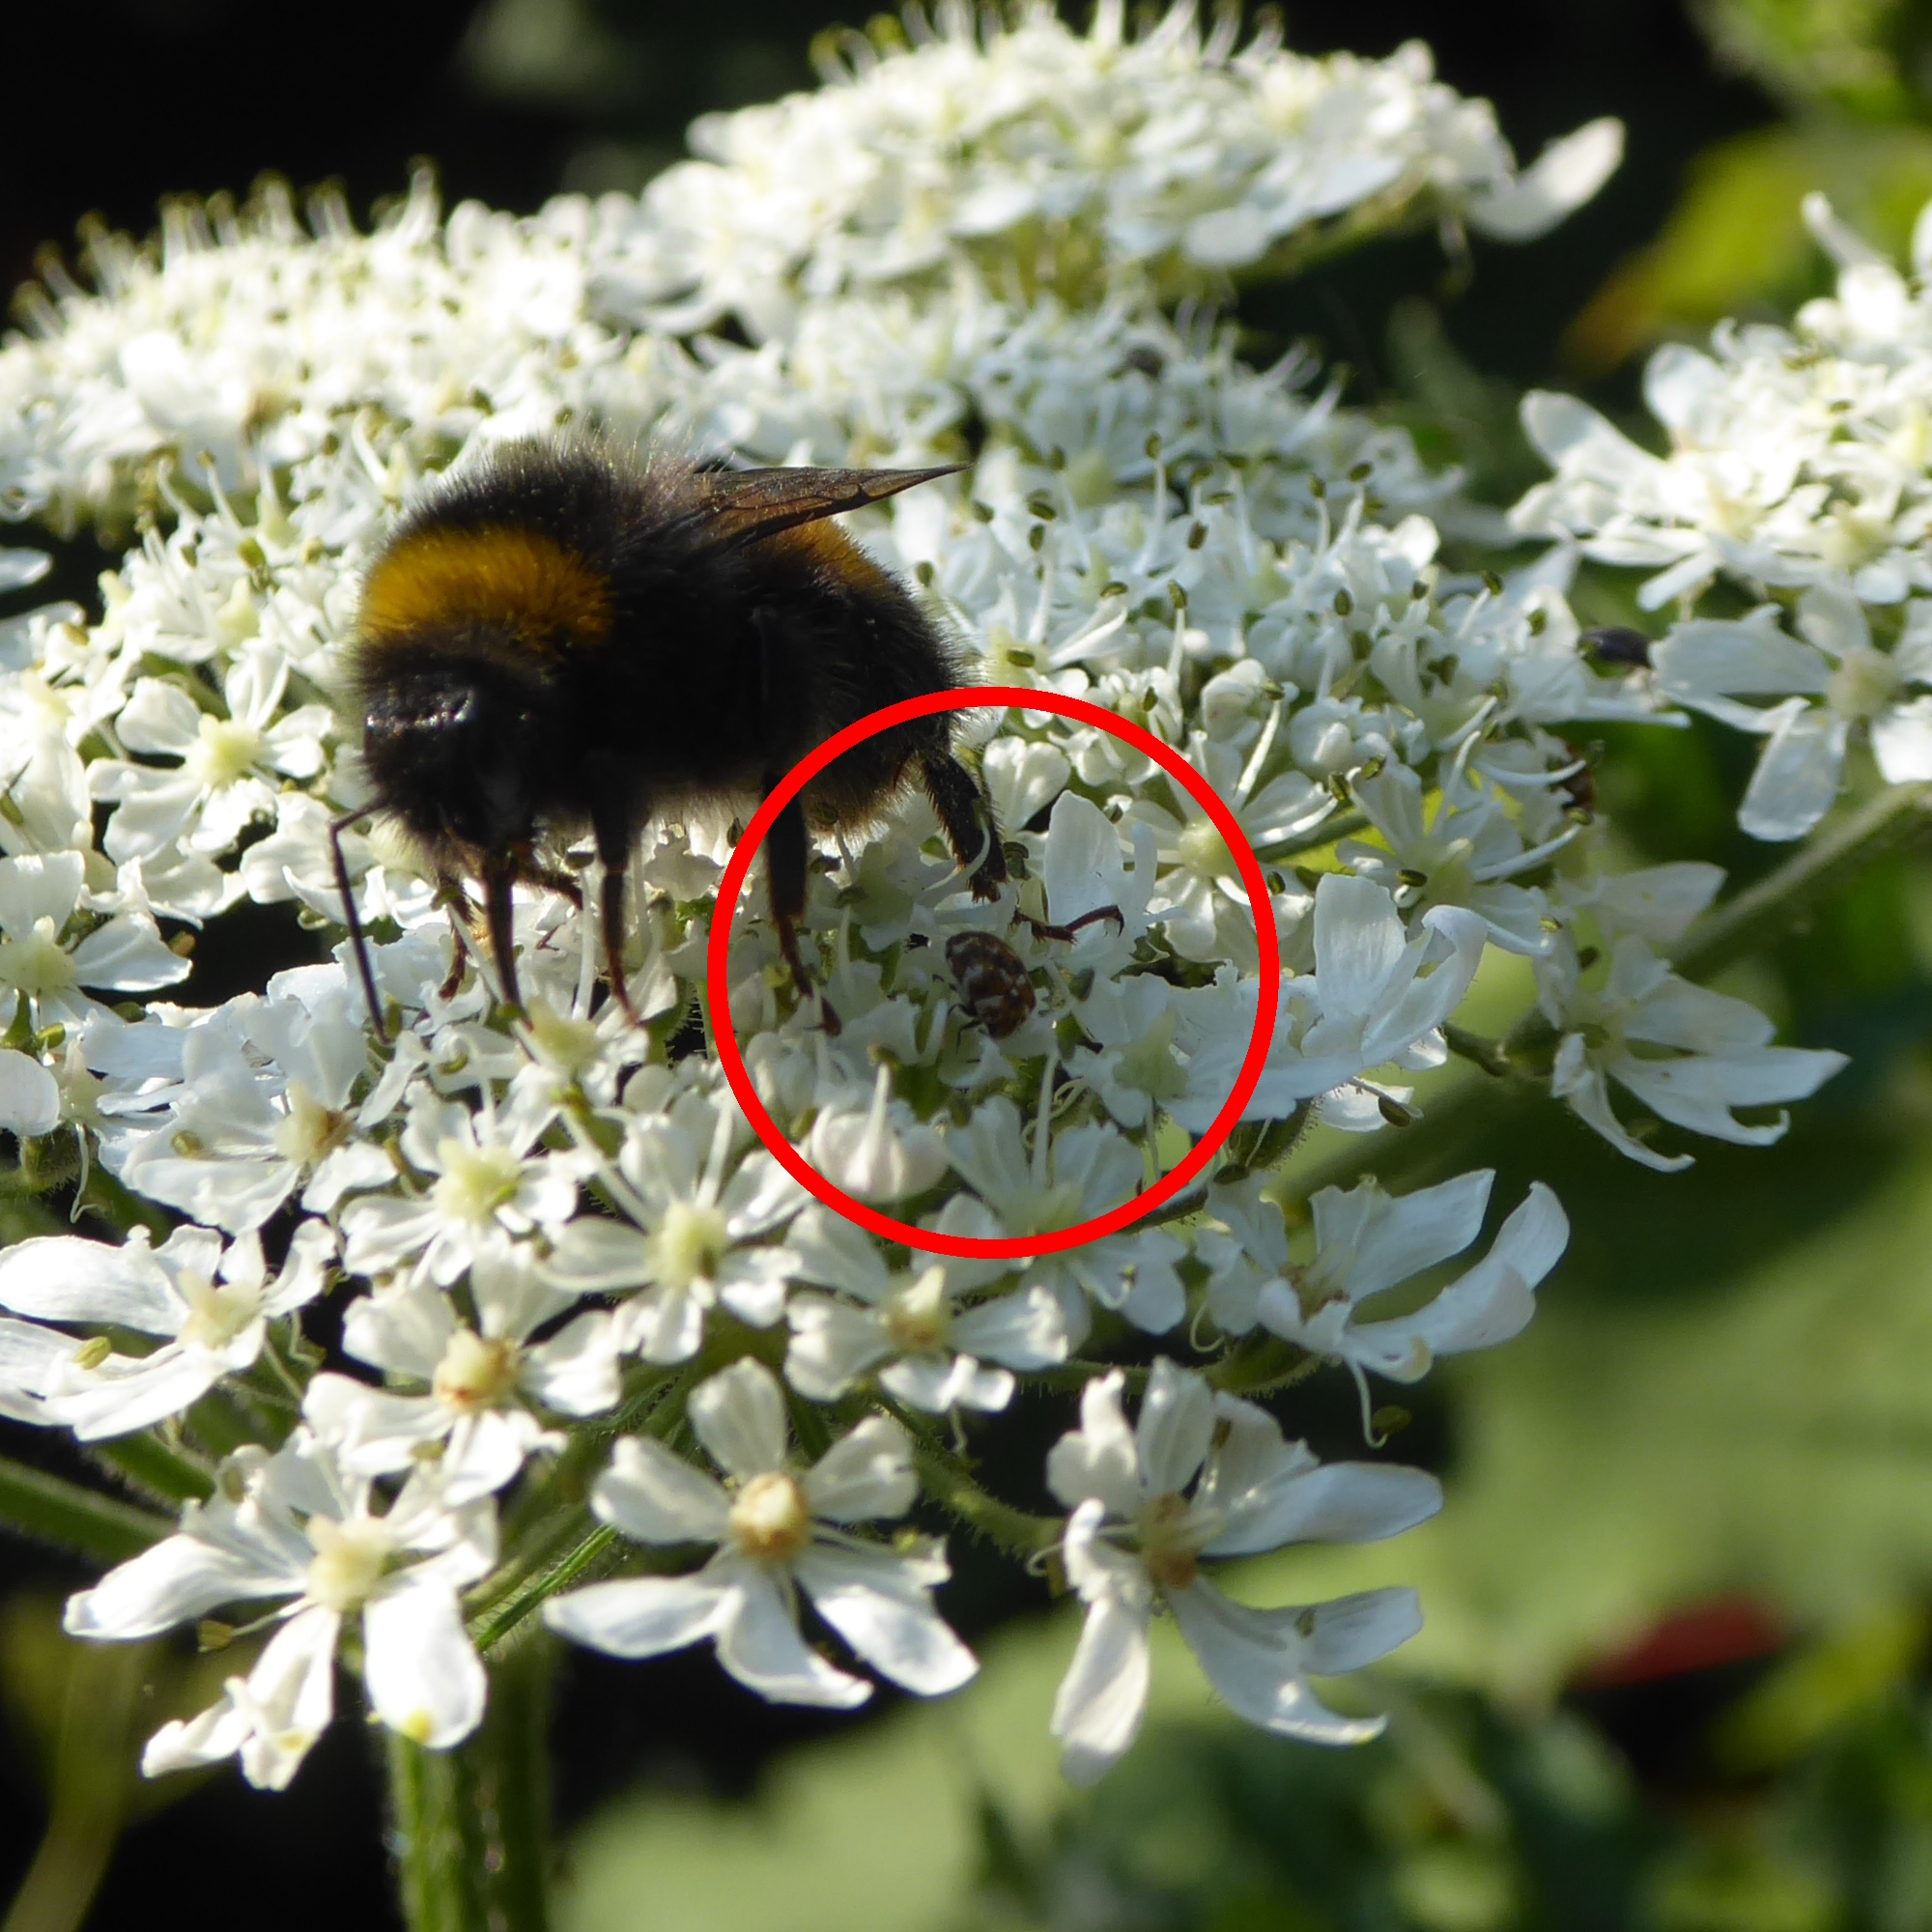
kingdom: Animalia
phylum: Arthropoda
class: Insecta
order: Coleoptera
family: Dermestidae
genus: Anthrenus
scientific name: Anthrenus verbasci
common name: Varied carpet beetle
